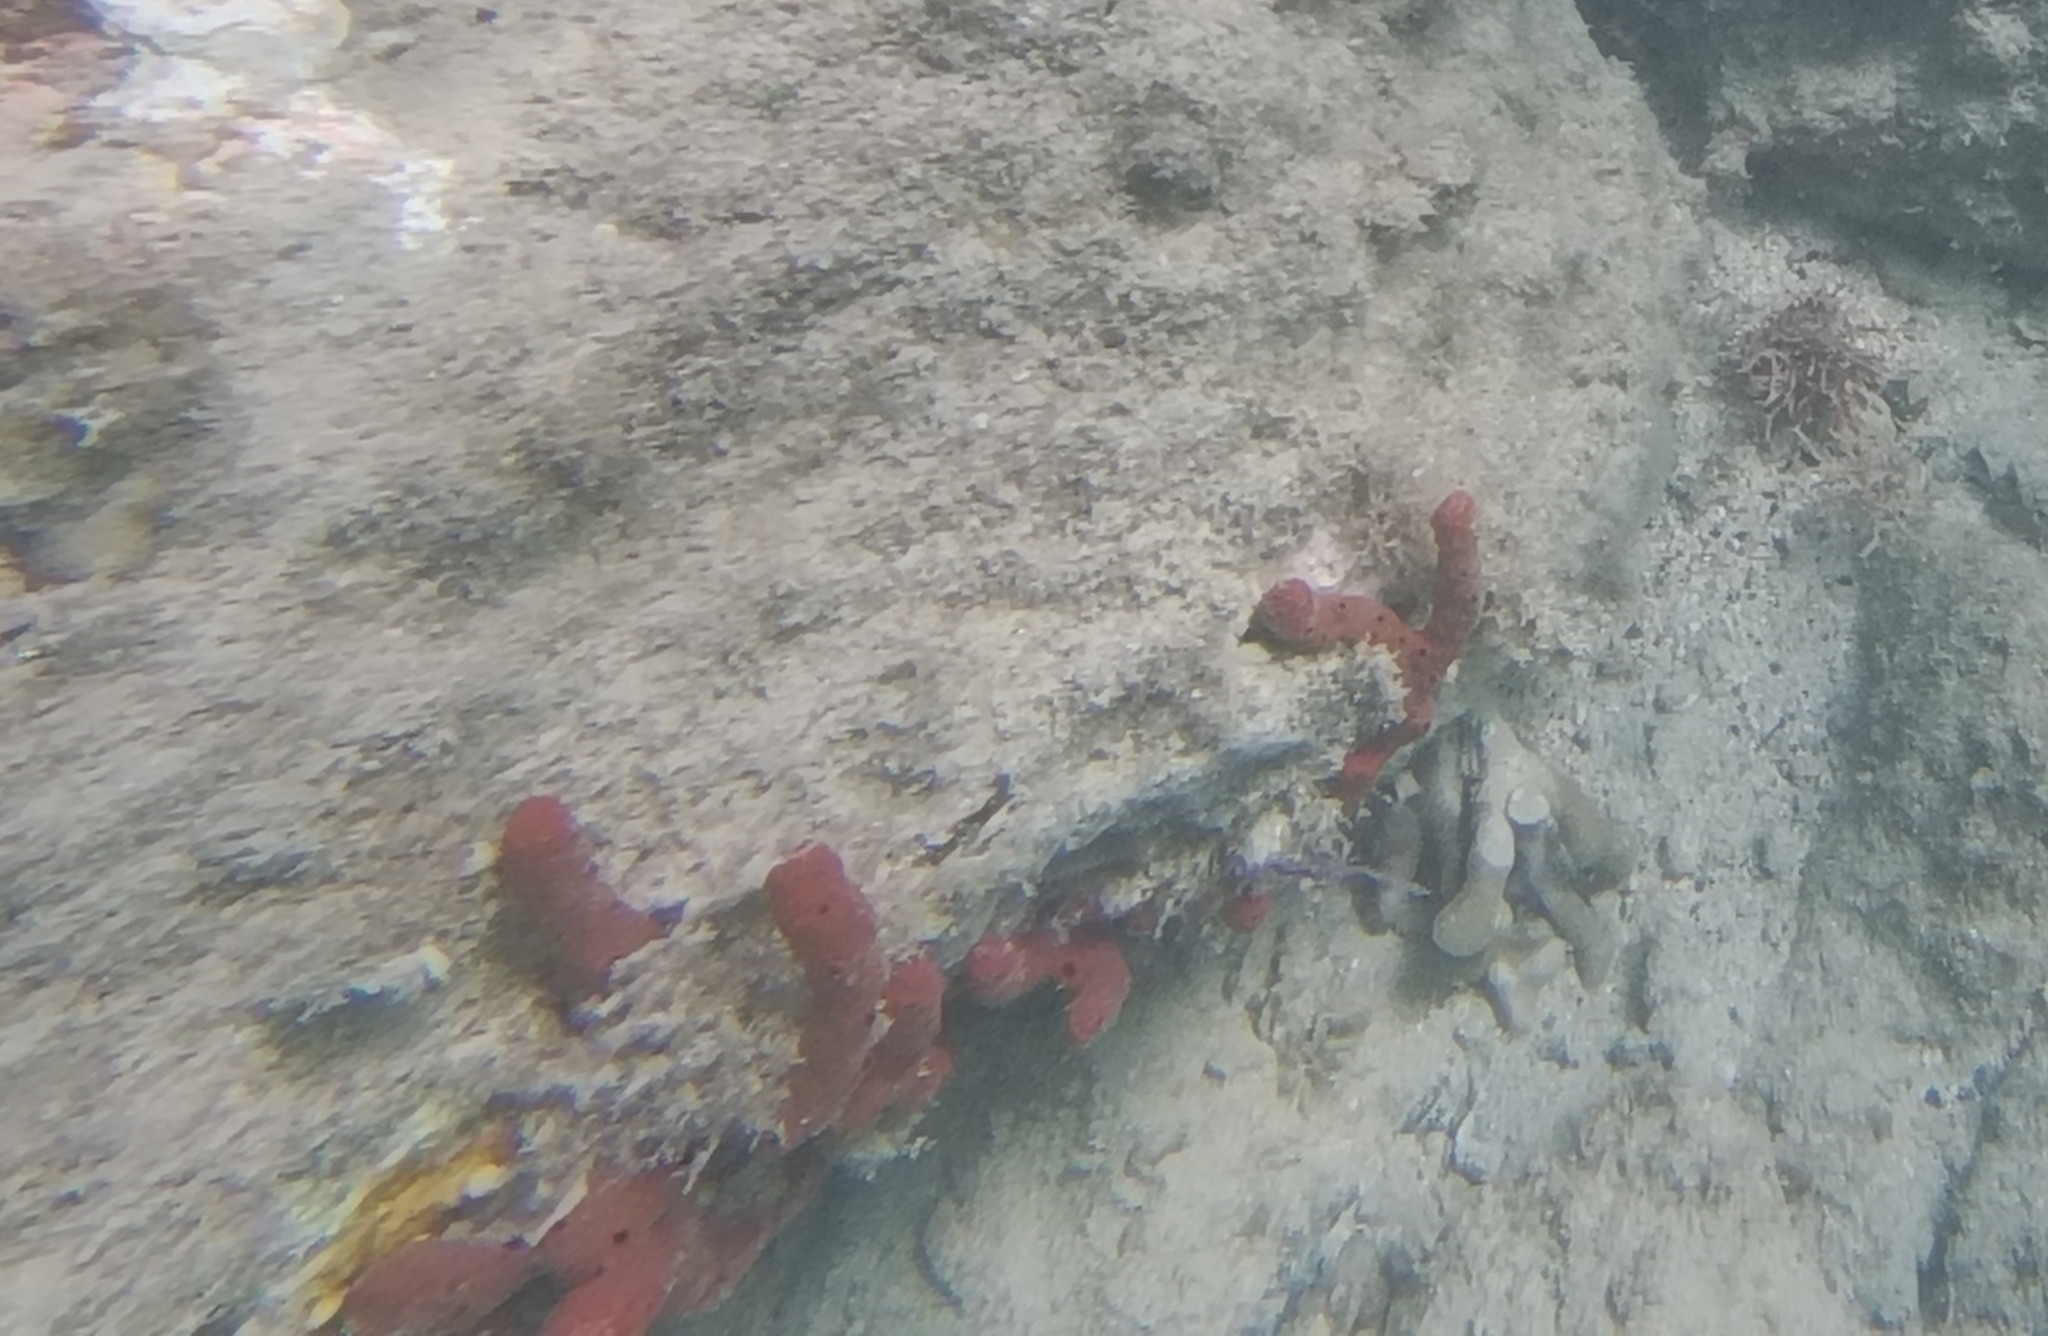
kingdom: Animalia
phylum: Porifera
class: Demospongiae
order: Haplosclerida
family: Niphatidae
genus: Amphimedon
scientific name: Amphimedon compressa
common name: Red sponge
